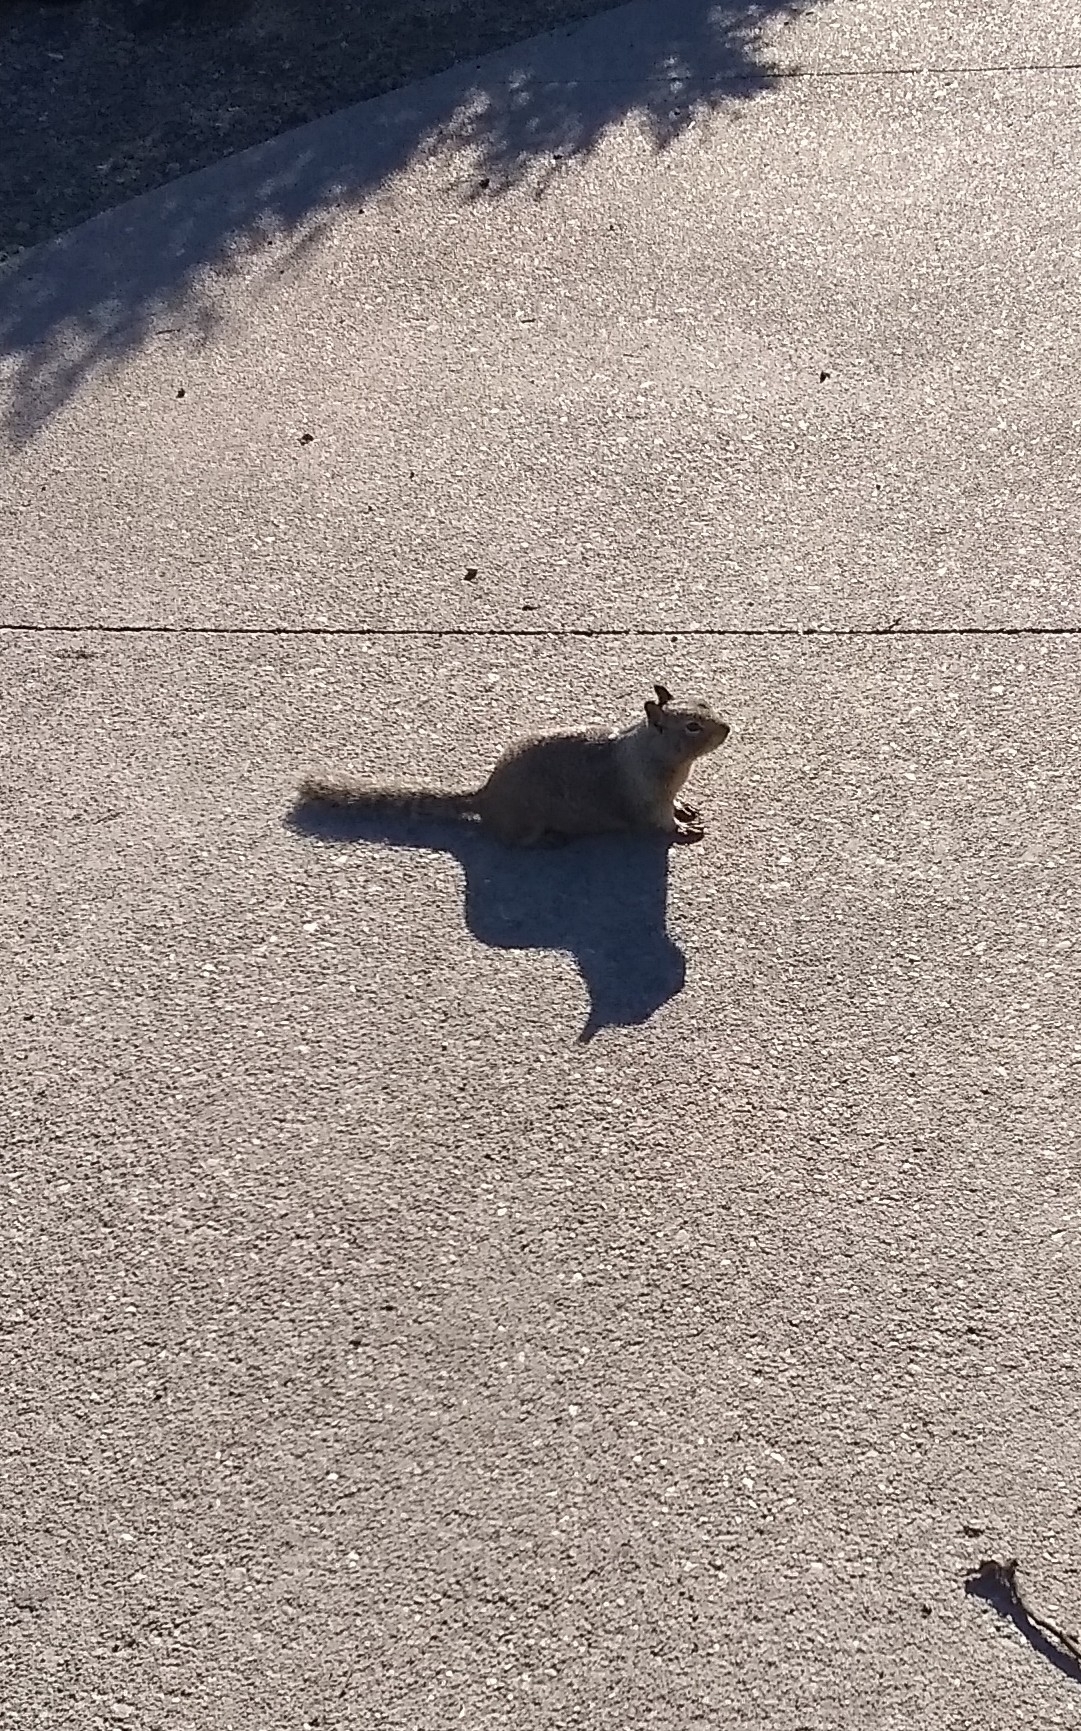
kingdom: Animalia
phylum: Chordata
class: Mammalia
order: Rodentia
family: Sciuridae
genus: Otospermophilus
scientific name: Otospermophilus beecheyi
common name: California ground squirrel
